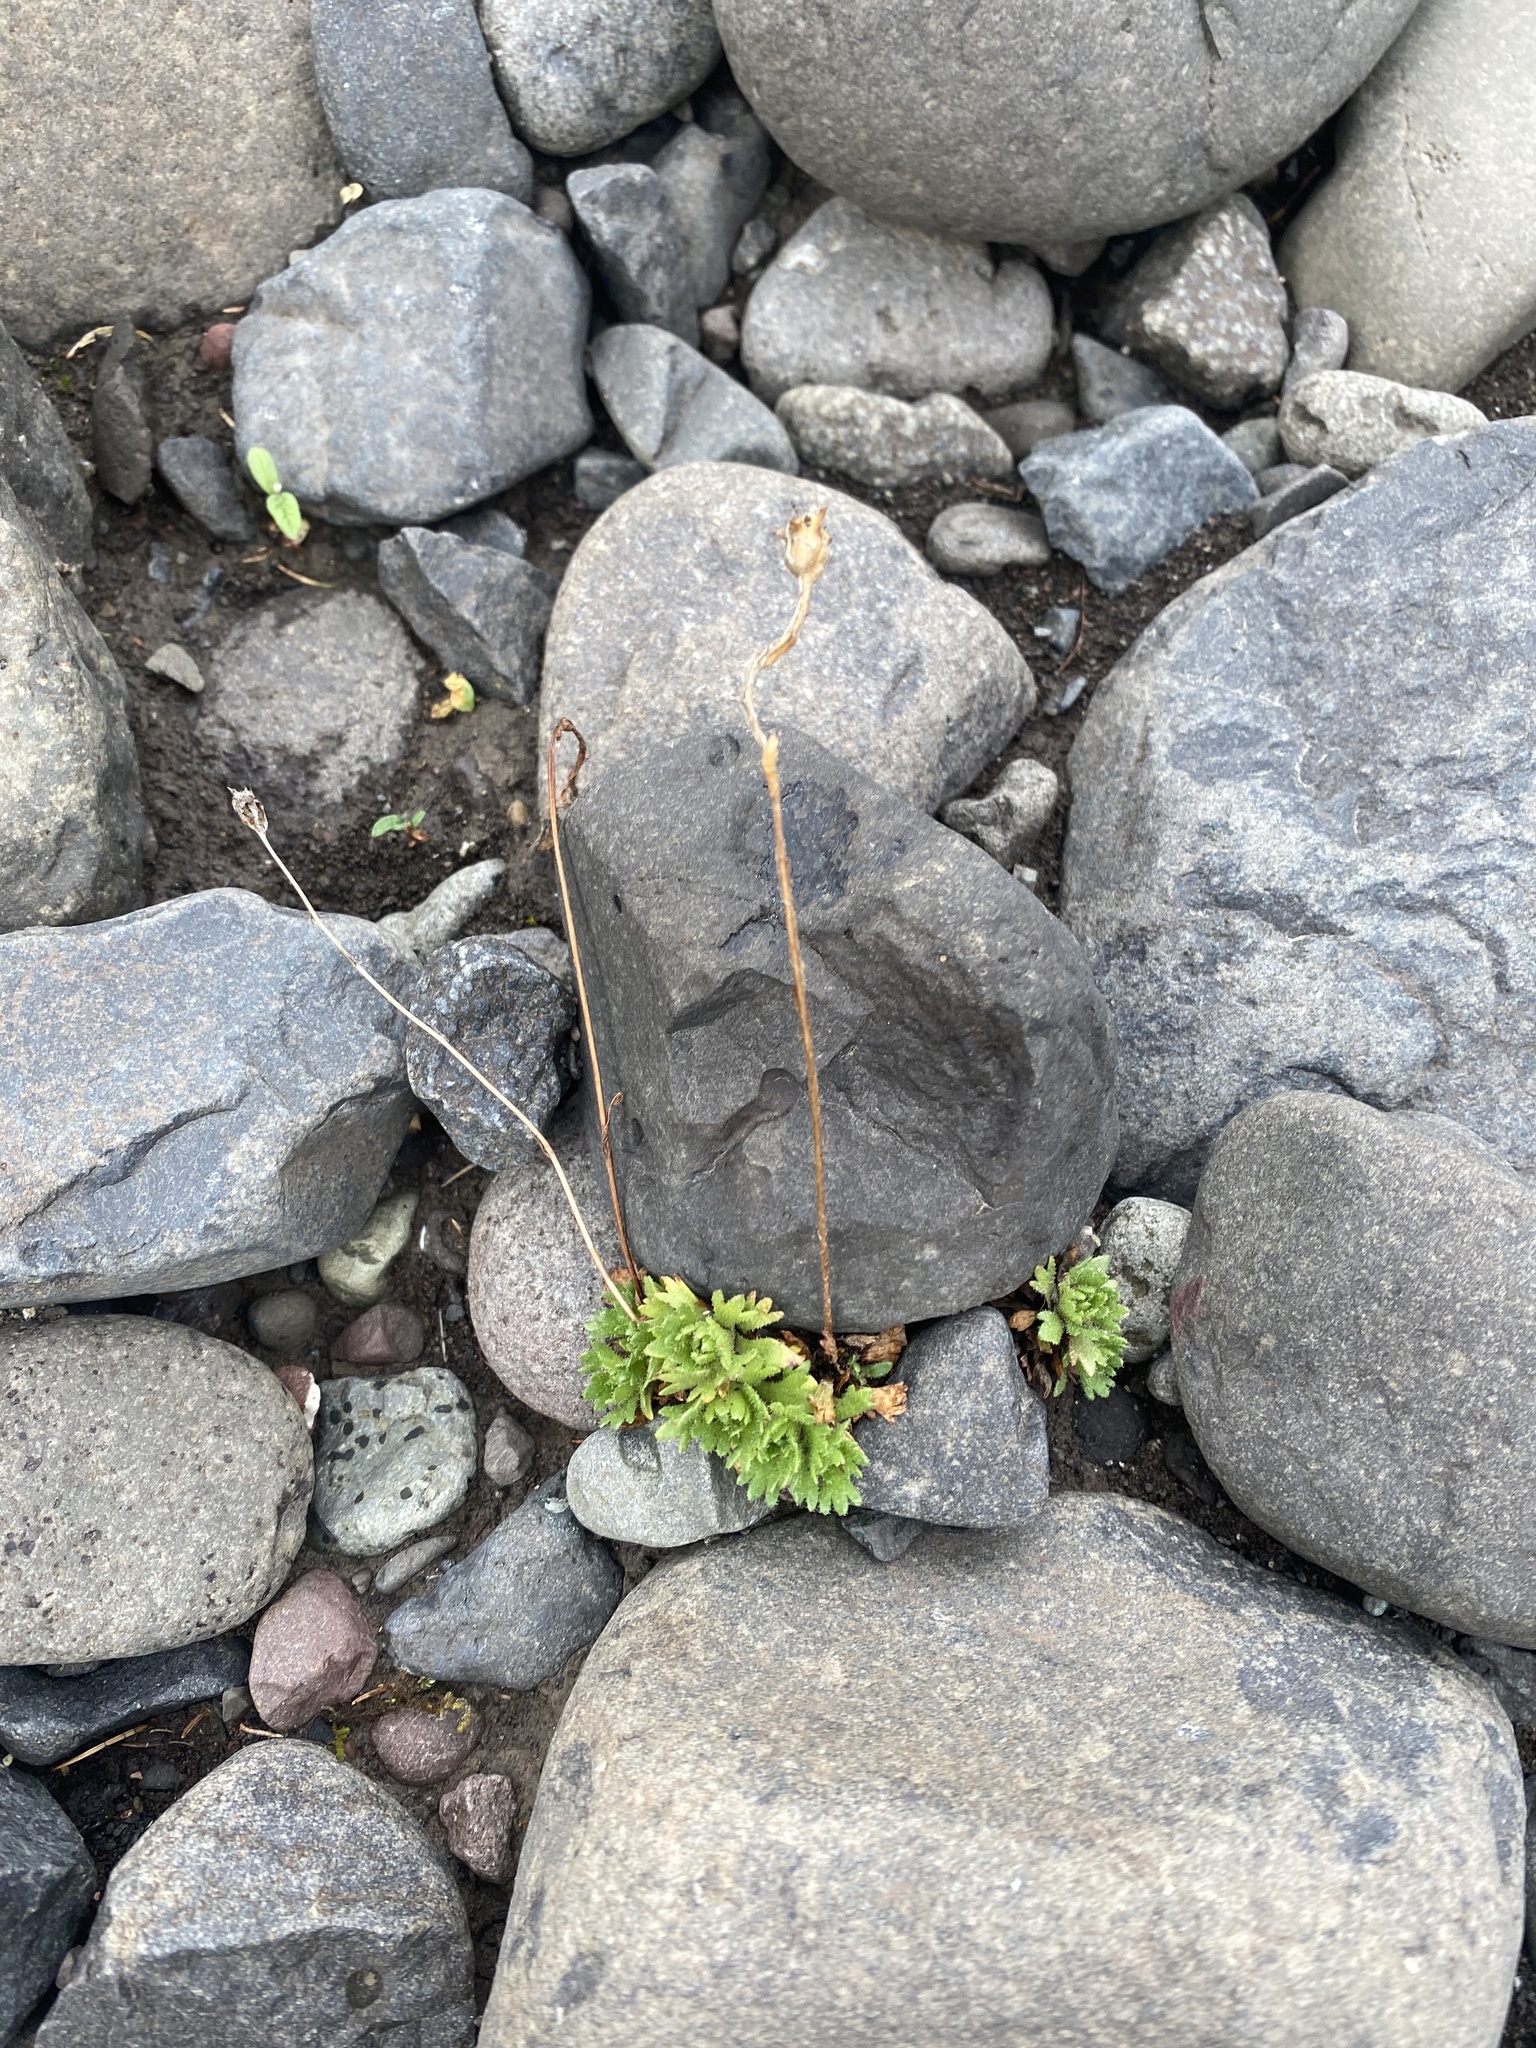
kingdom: Plantae
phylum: Tracheophyta
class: Magnoliopsida
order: Saxifragales
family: Saxifragaceae
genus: Saxifraga
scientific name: Saxifraga cespitosa
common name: Tufted saxifrage
